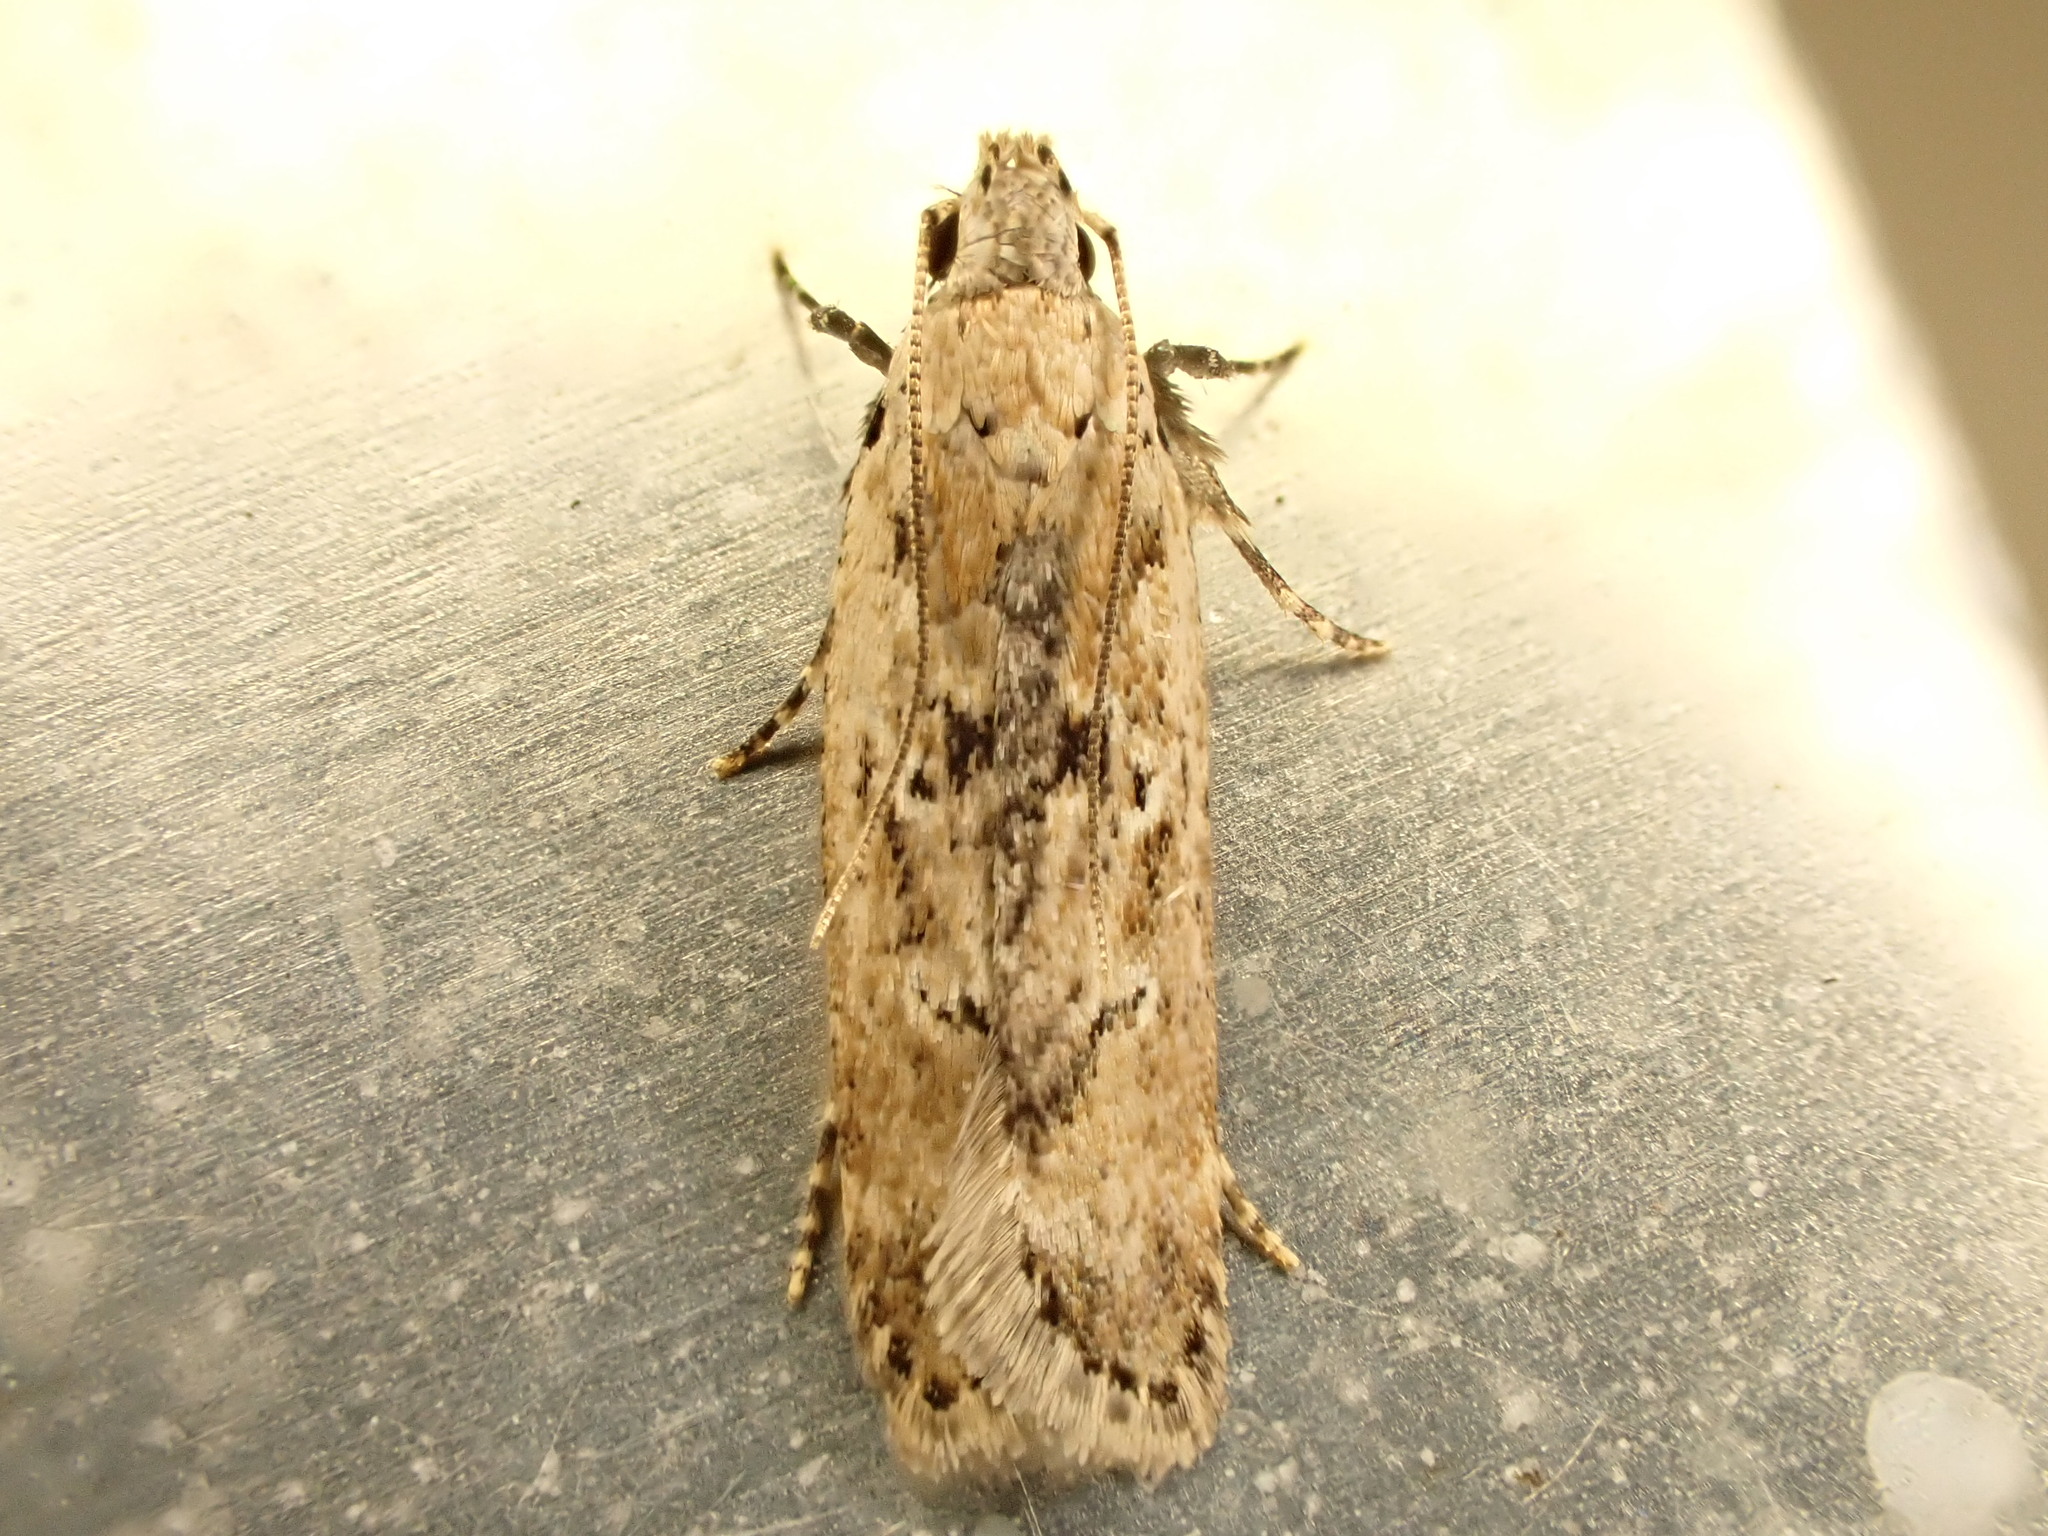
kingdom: Animalia
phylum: Arthropoda
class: Insecta
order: Lepidoptera
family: Gelechiidae
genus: Anisoplaca
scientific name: Anisoplaca achyrota
